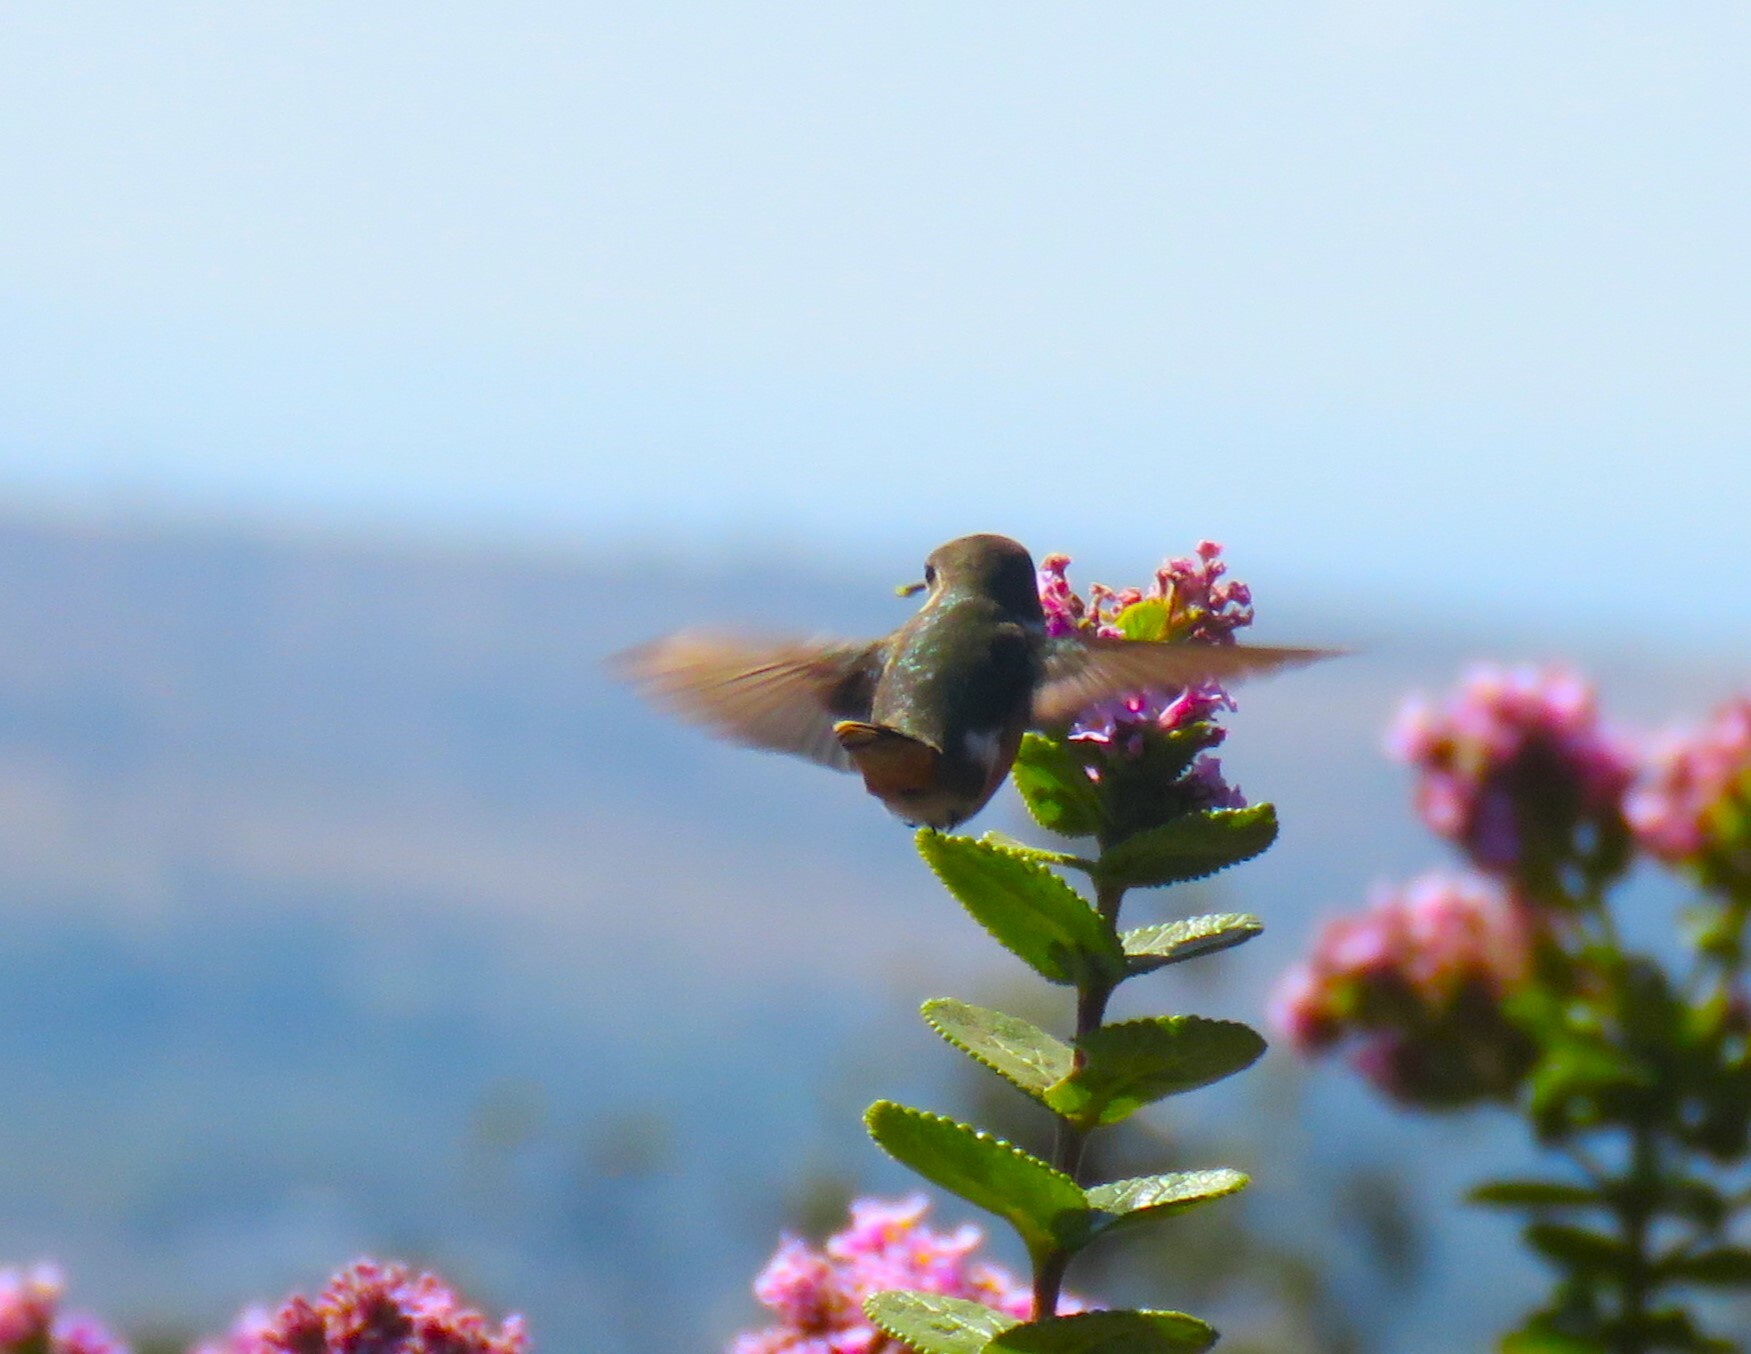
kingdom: Animalia
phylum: Chordata
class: Aves
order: Apodiformes
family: Trochilidae
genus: Calliphlox
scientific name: Calliphlox amethystina
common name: Amethyst woodstar
